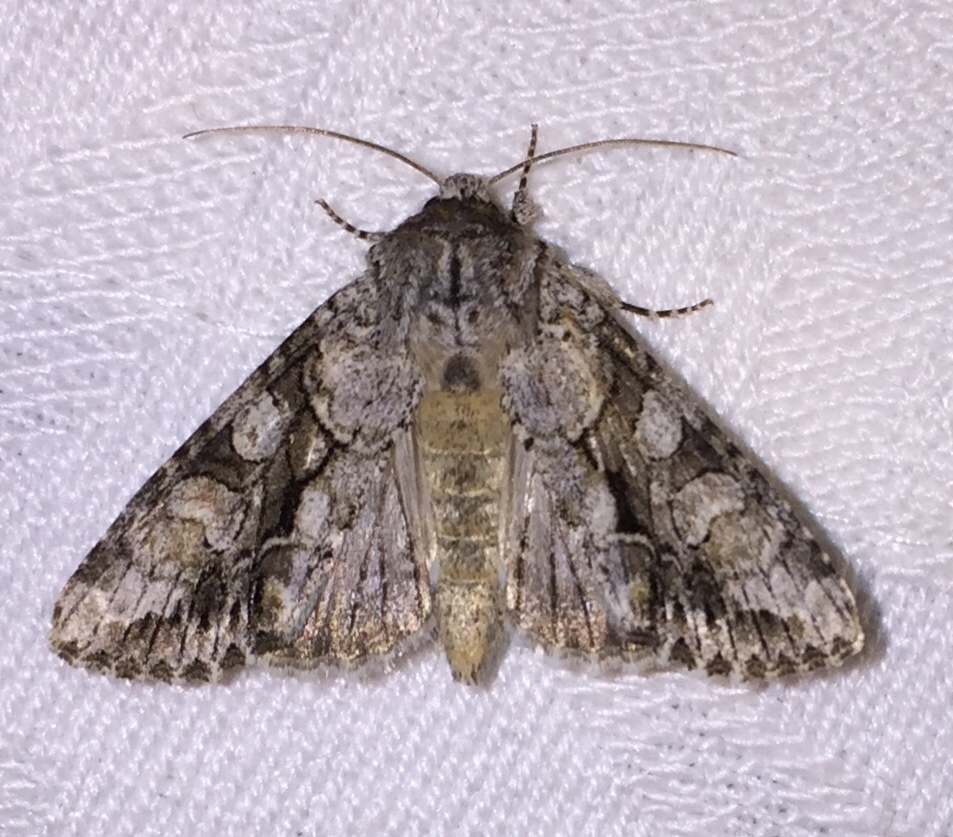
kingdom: Animalia
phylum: Arthropoda
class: Insecta
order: Lepidoptera
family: Noctuidae
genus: Achatia
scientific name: Achatia distincta
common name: Distinct quaker
